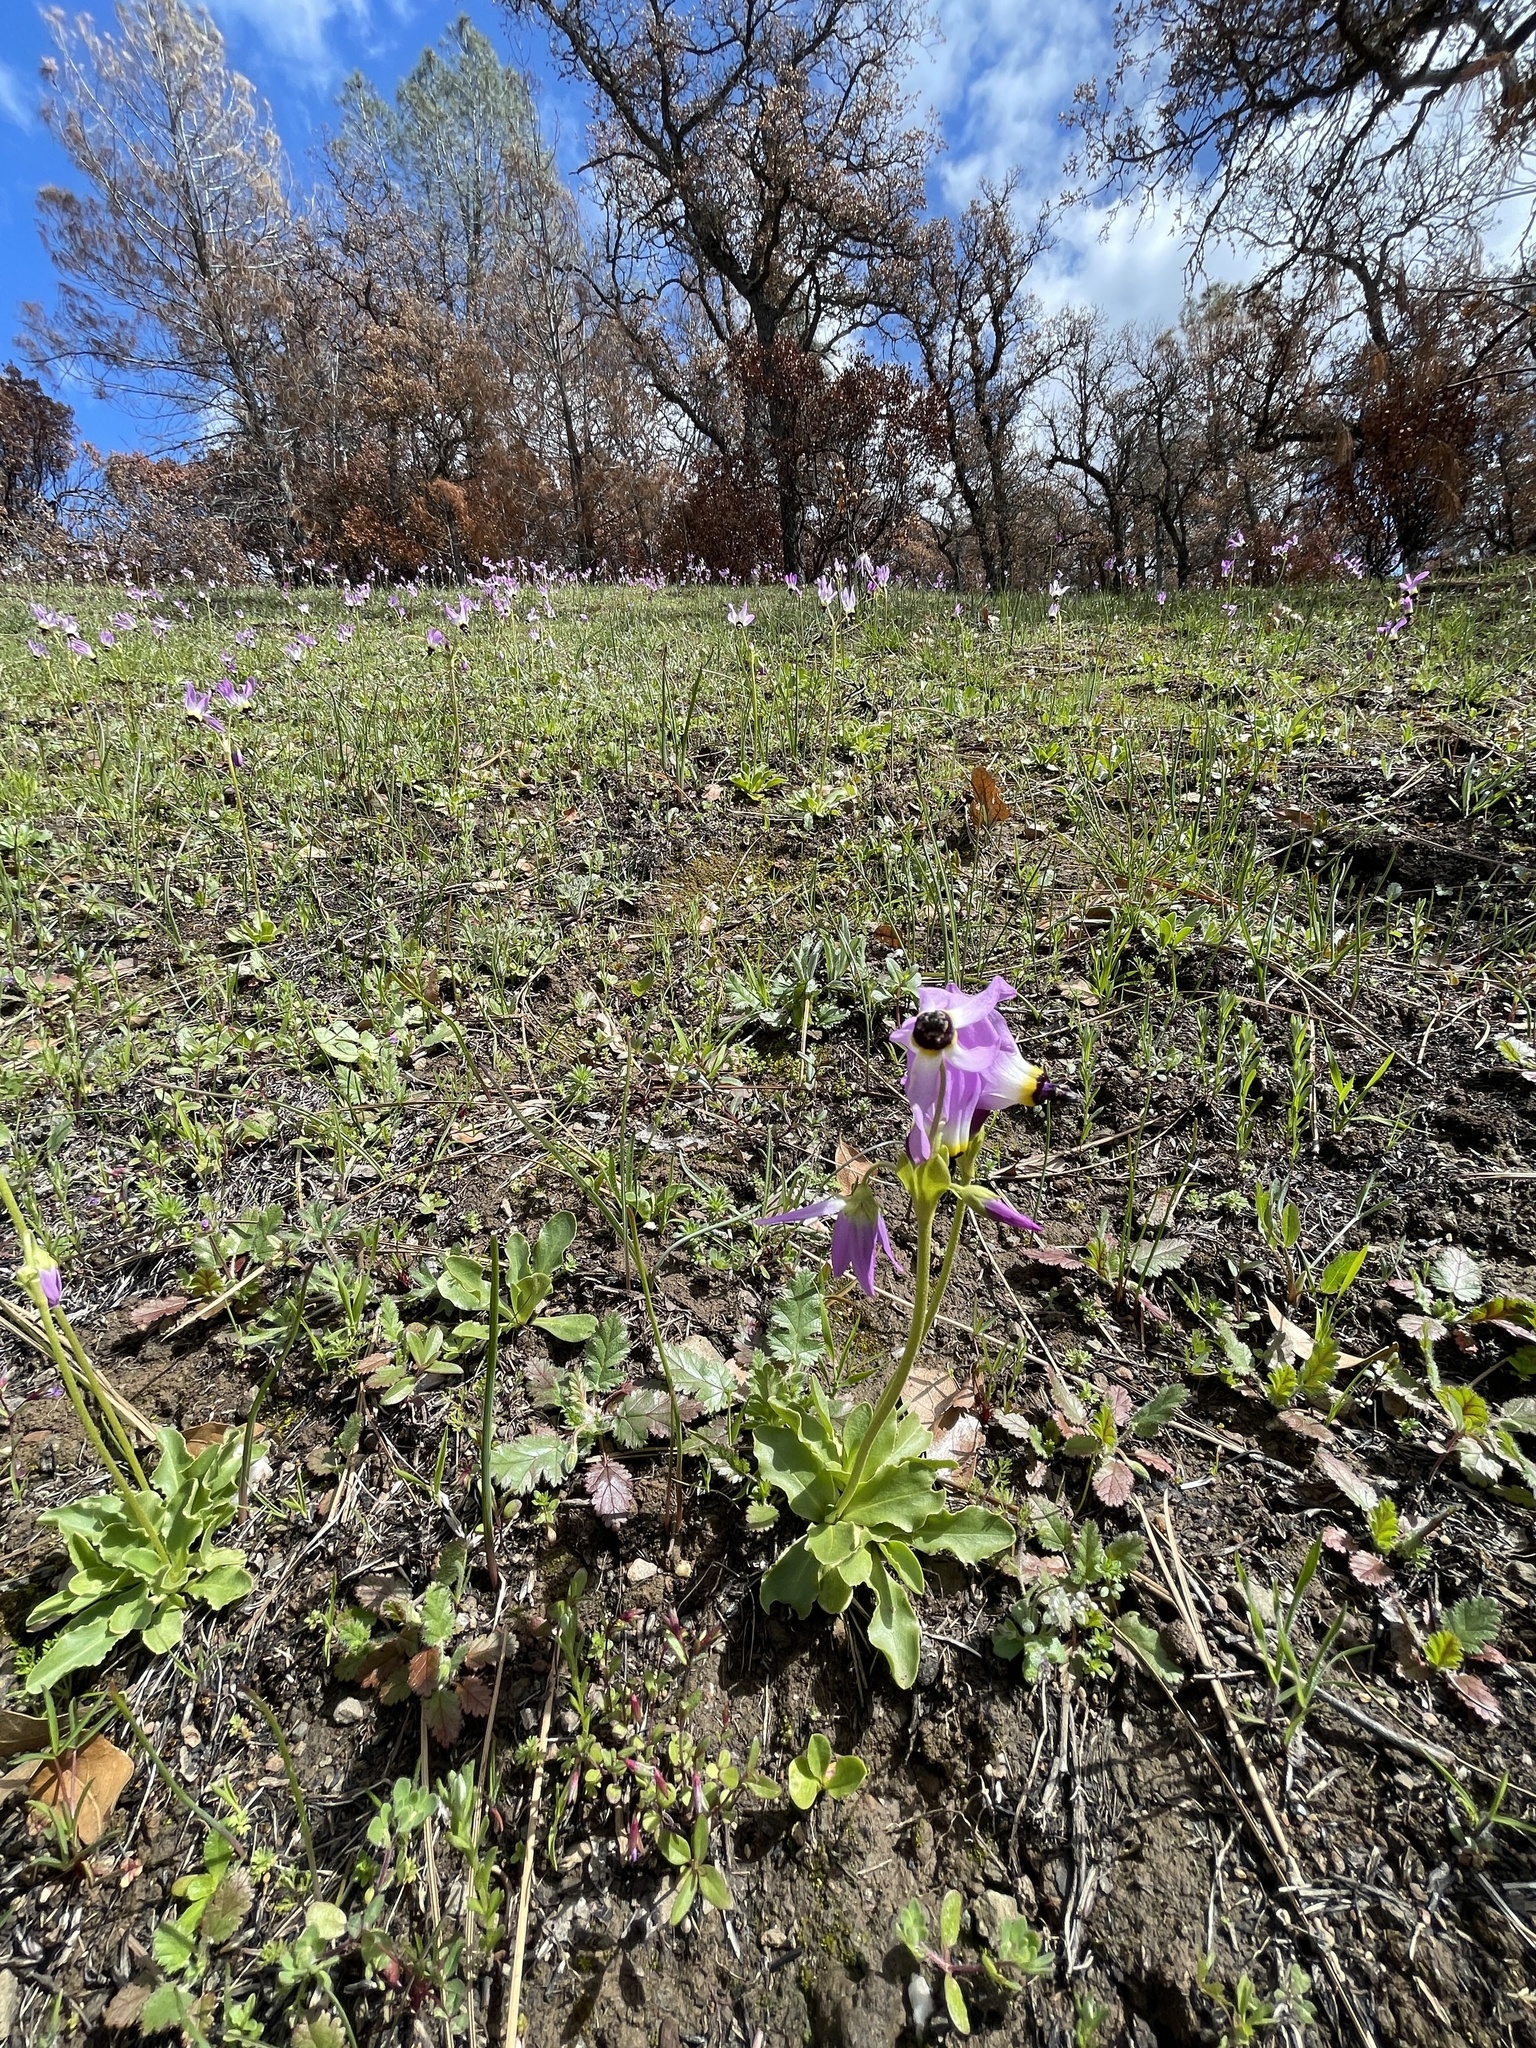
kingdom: Plantae
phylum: Tracheophyta
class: Magnoliopsida
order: Ericales
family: Primulaceae
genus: Dodecatheon
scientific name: Dodecatheon clevelandii
